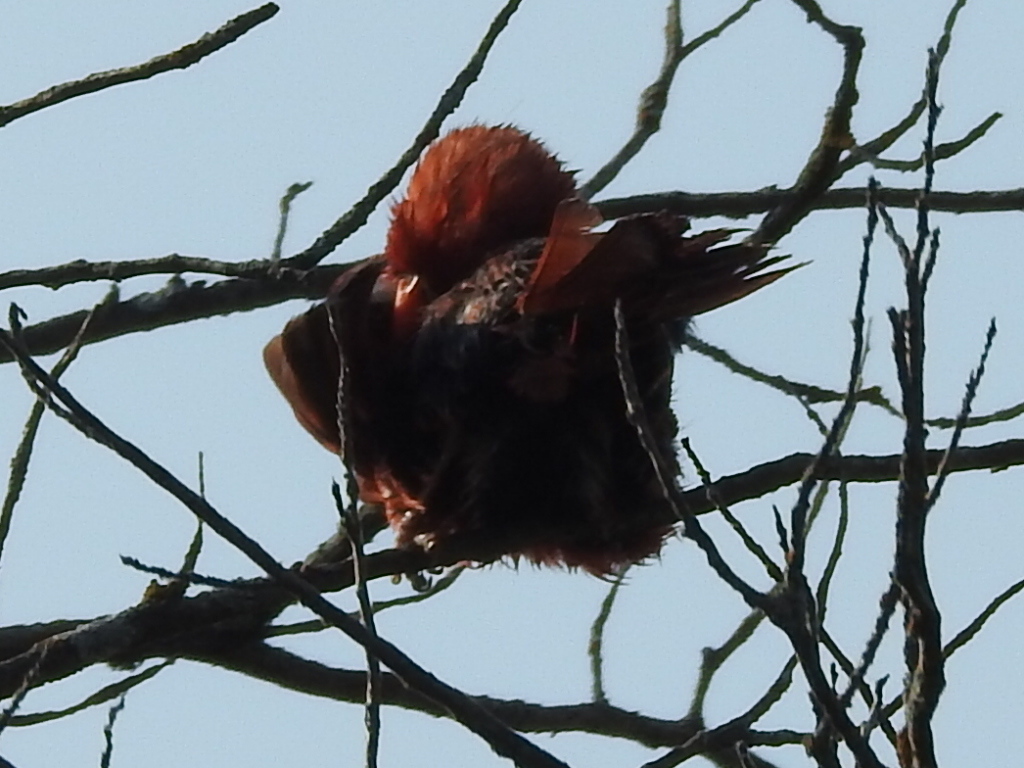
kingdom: Animalia
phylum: Chordata
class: Aves
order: Passeriformes
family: Cardinalidae
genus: Cardinalis
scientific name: Cardinalis cardinalis
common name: Northern cardinal
